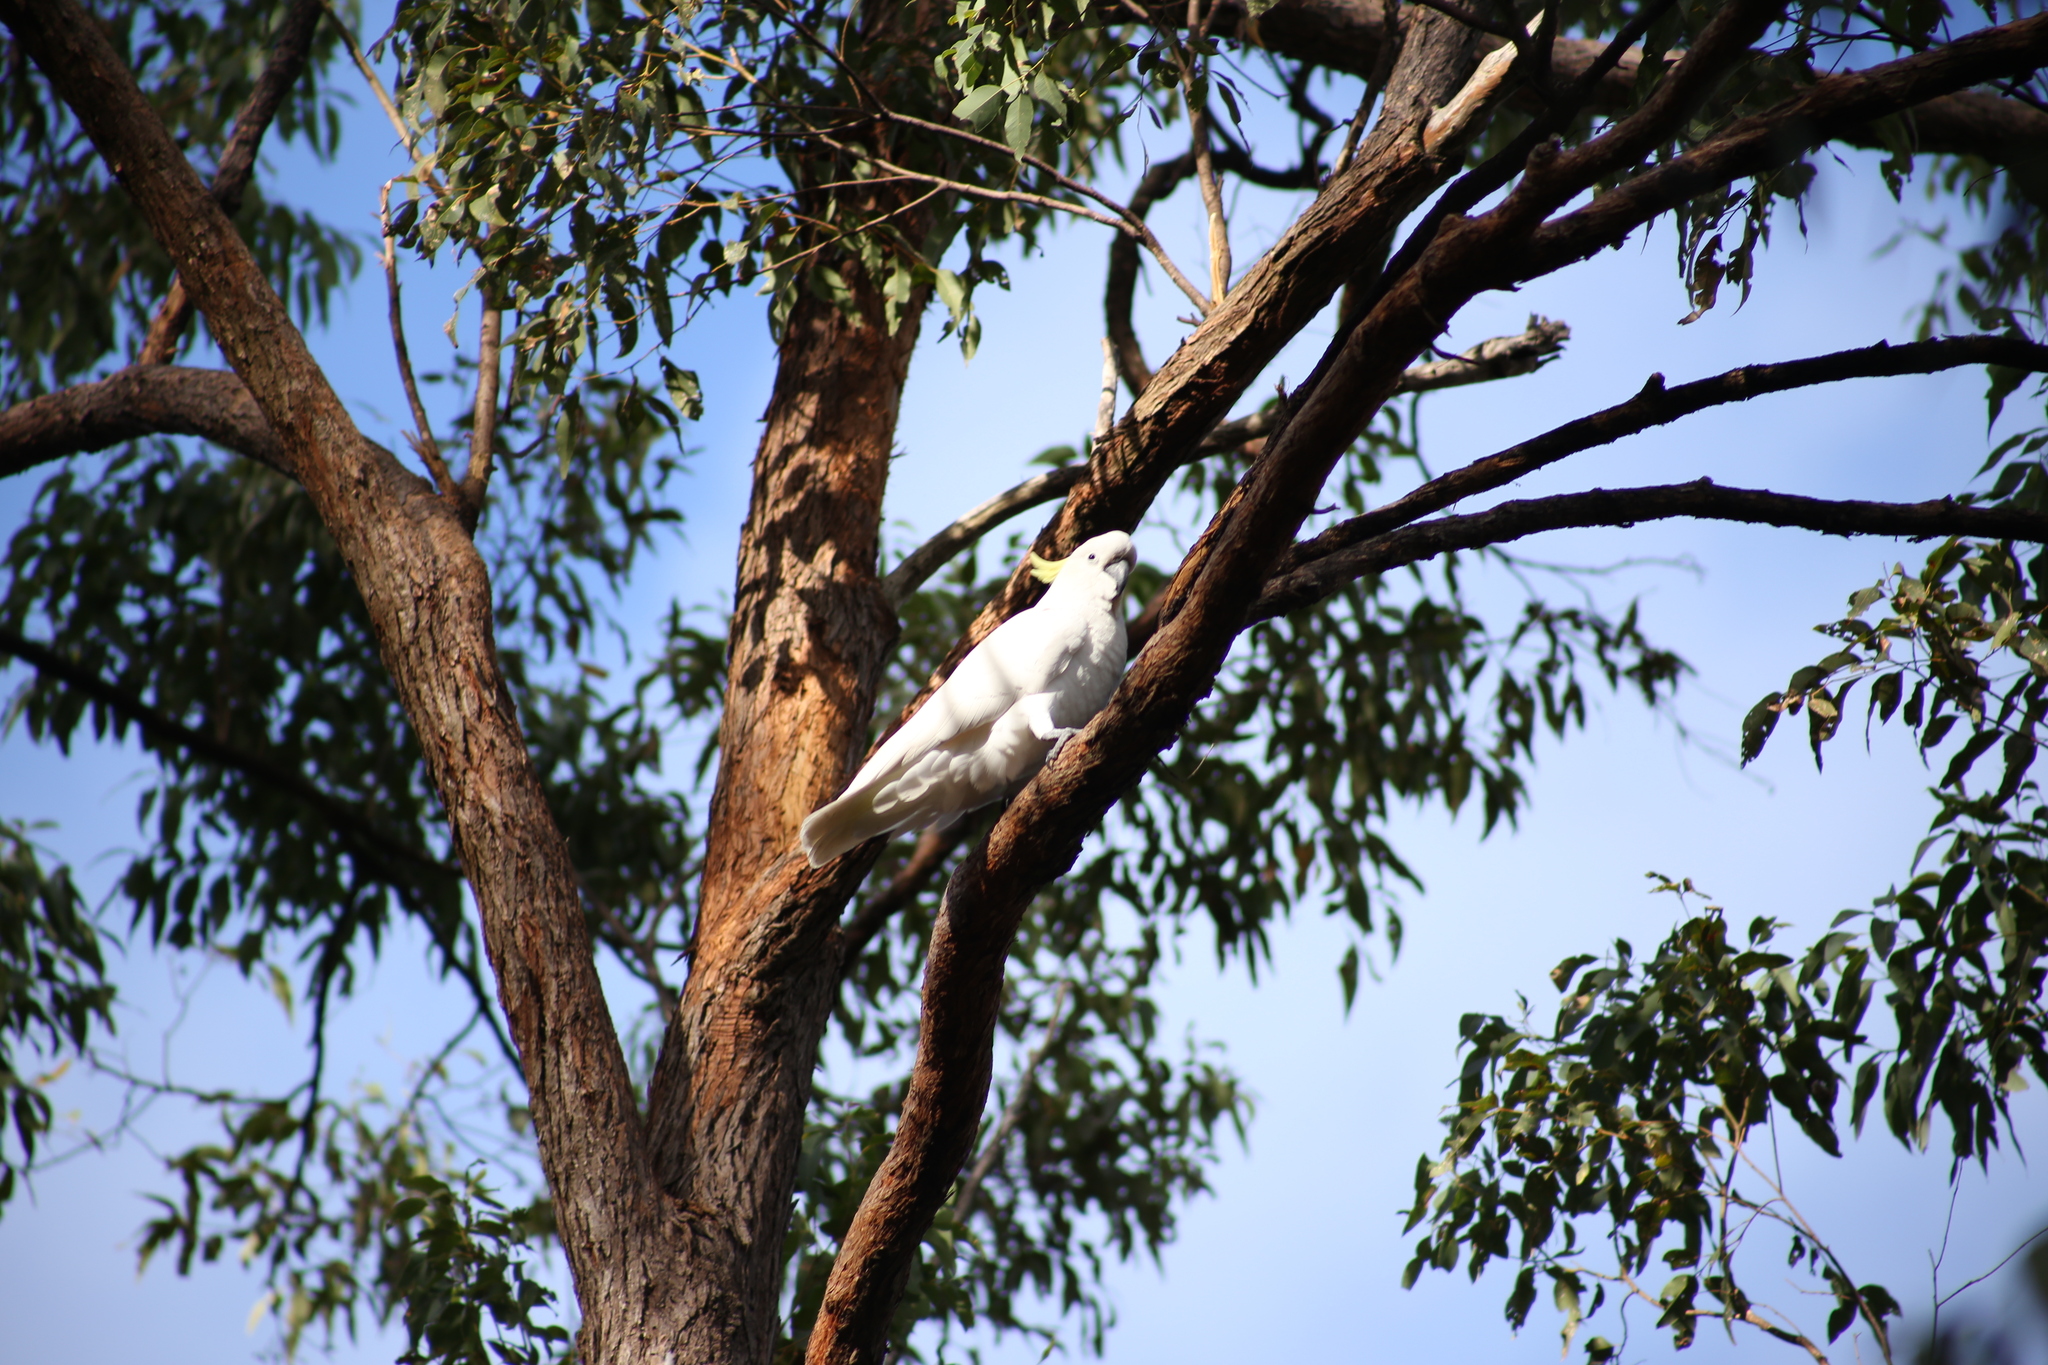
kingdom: Animalia
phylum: Chordata
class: Aves
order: Psittaciformes
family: Psittacidae
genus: Cacatua
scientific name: Cacatua galerita
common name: Sulphur-crested cockatoo
